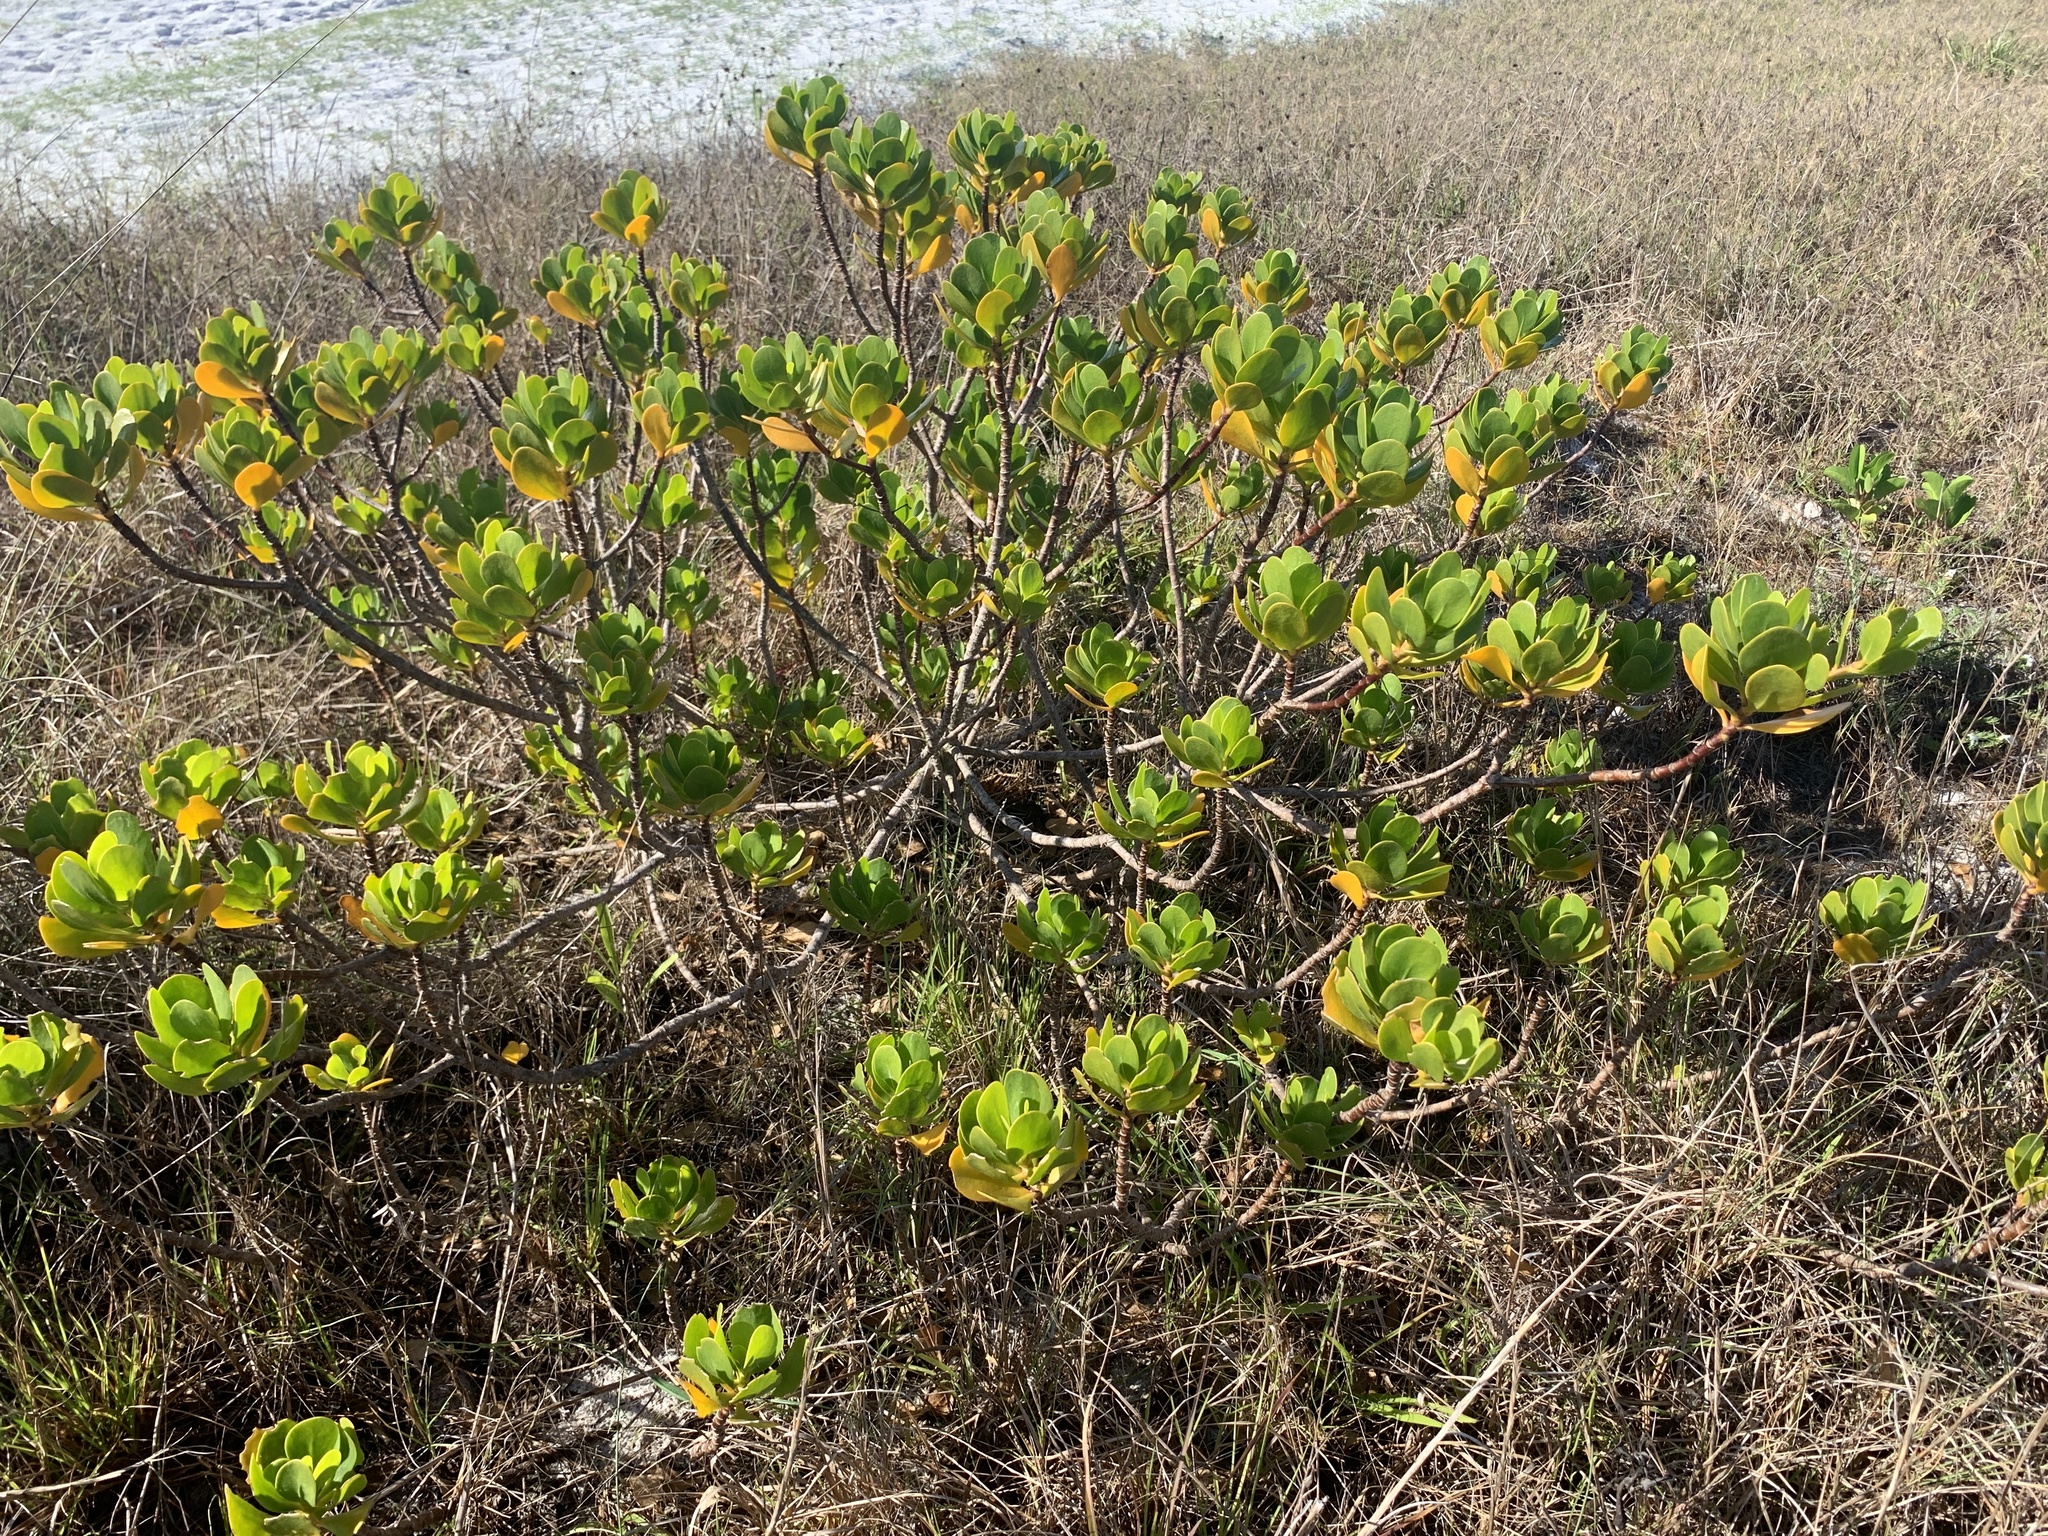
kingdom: Plantae
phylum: Tracheophyta
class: Magnoliopsida
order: Asterales
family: Goodeniaceae
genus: Scaevola
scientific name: Scaevola plumieri
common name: Gull feed
